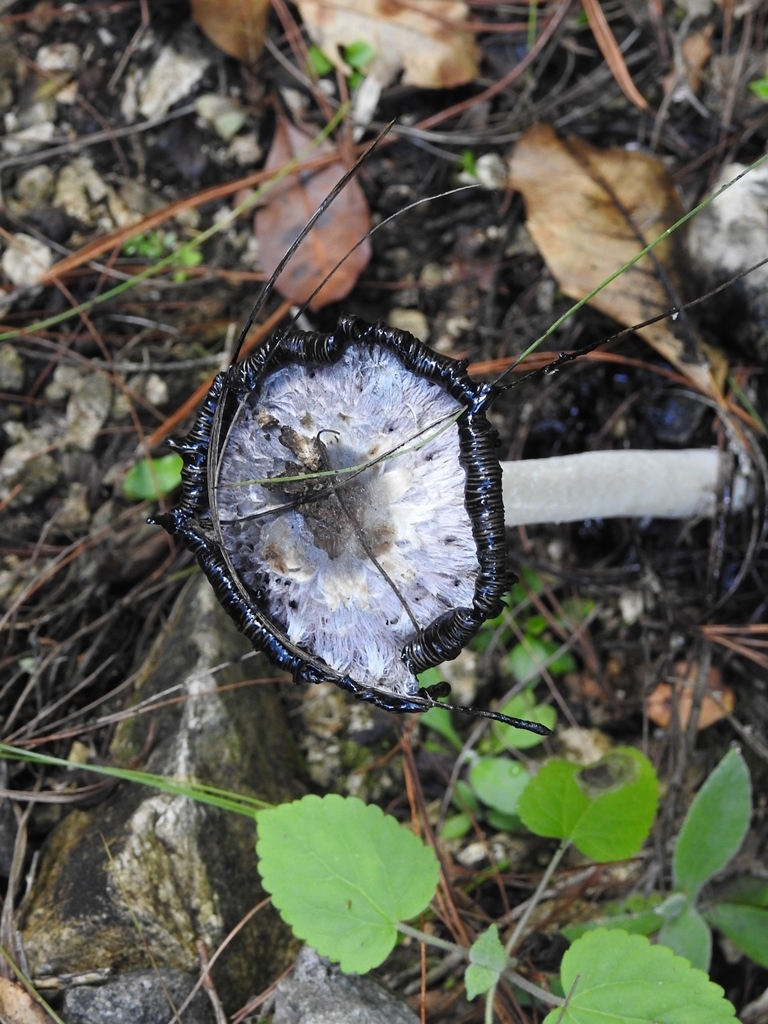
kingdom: Fungi
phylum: Basidiomycota
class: Agaricomycetes
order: Agaricales
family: Agaricaceae
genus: Coprinus
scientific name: Coprinus comatus
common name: Lawyer's wig
